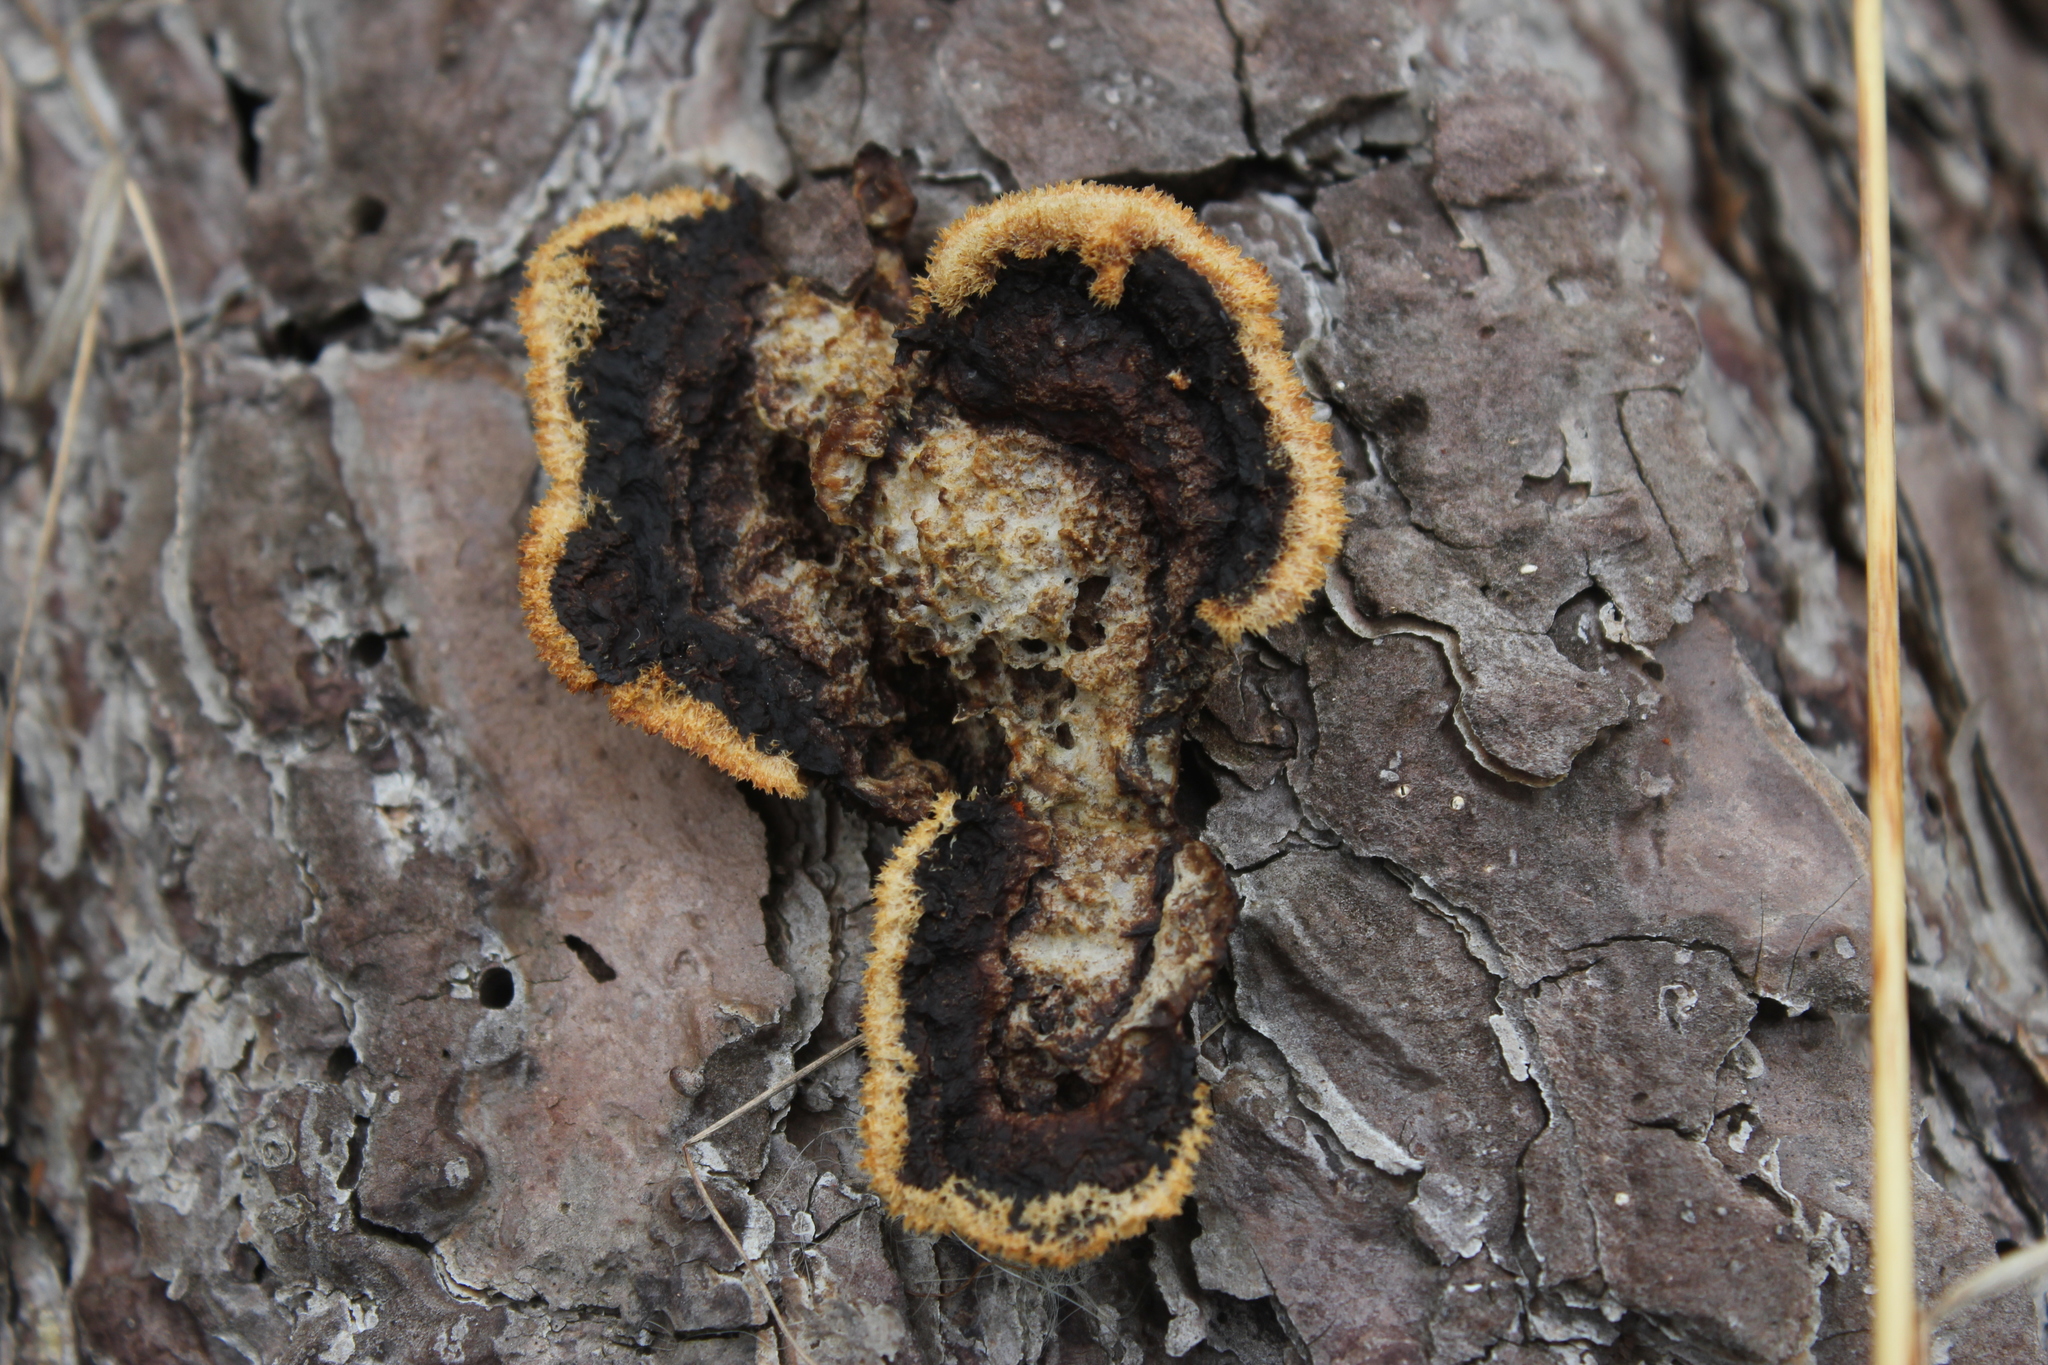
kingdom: Fungi
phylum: Basidiomycota
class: Agaricomycetes
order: Gloeophyllales
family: Gloeophyllaceae
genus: Gloeophyllum
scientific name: Gloeophyllum sepiarium
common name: Conifer mazegill
